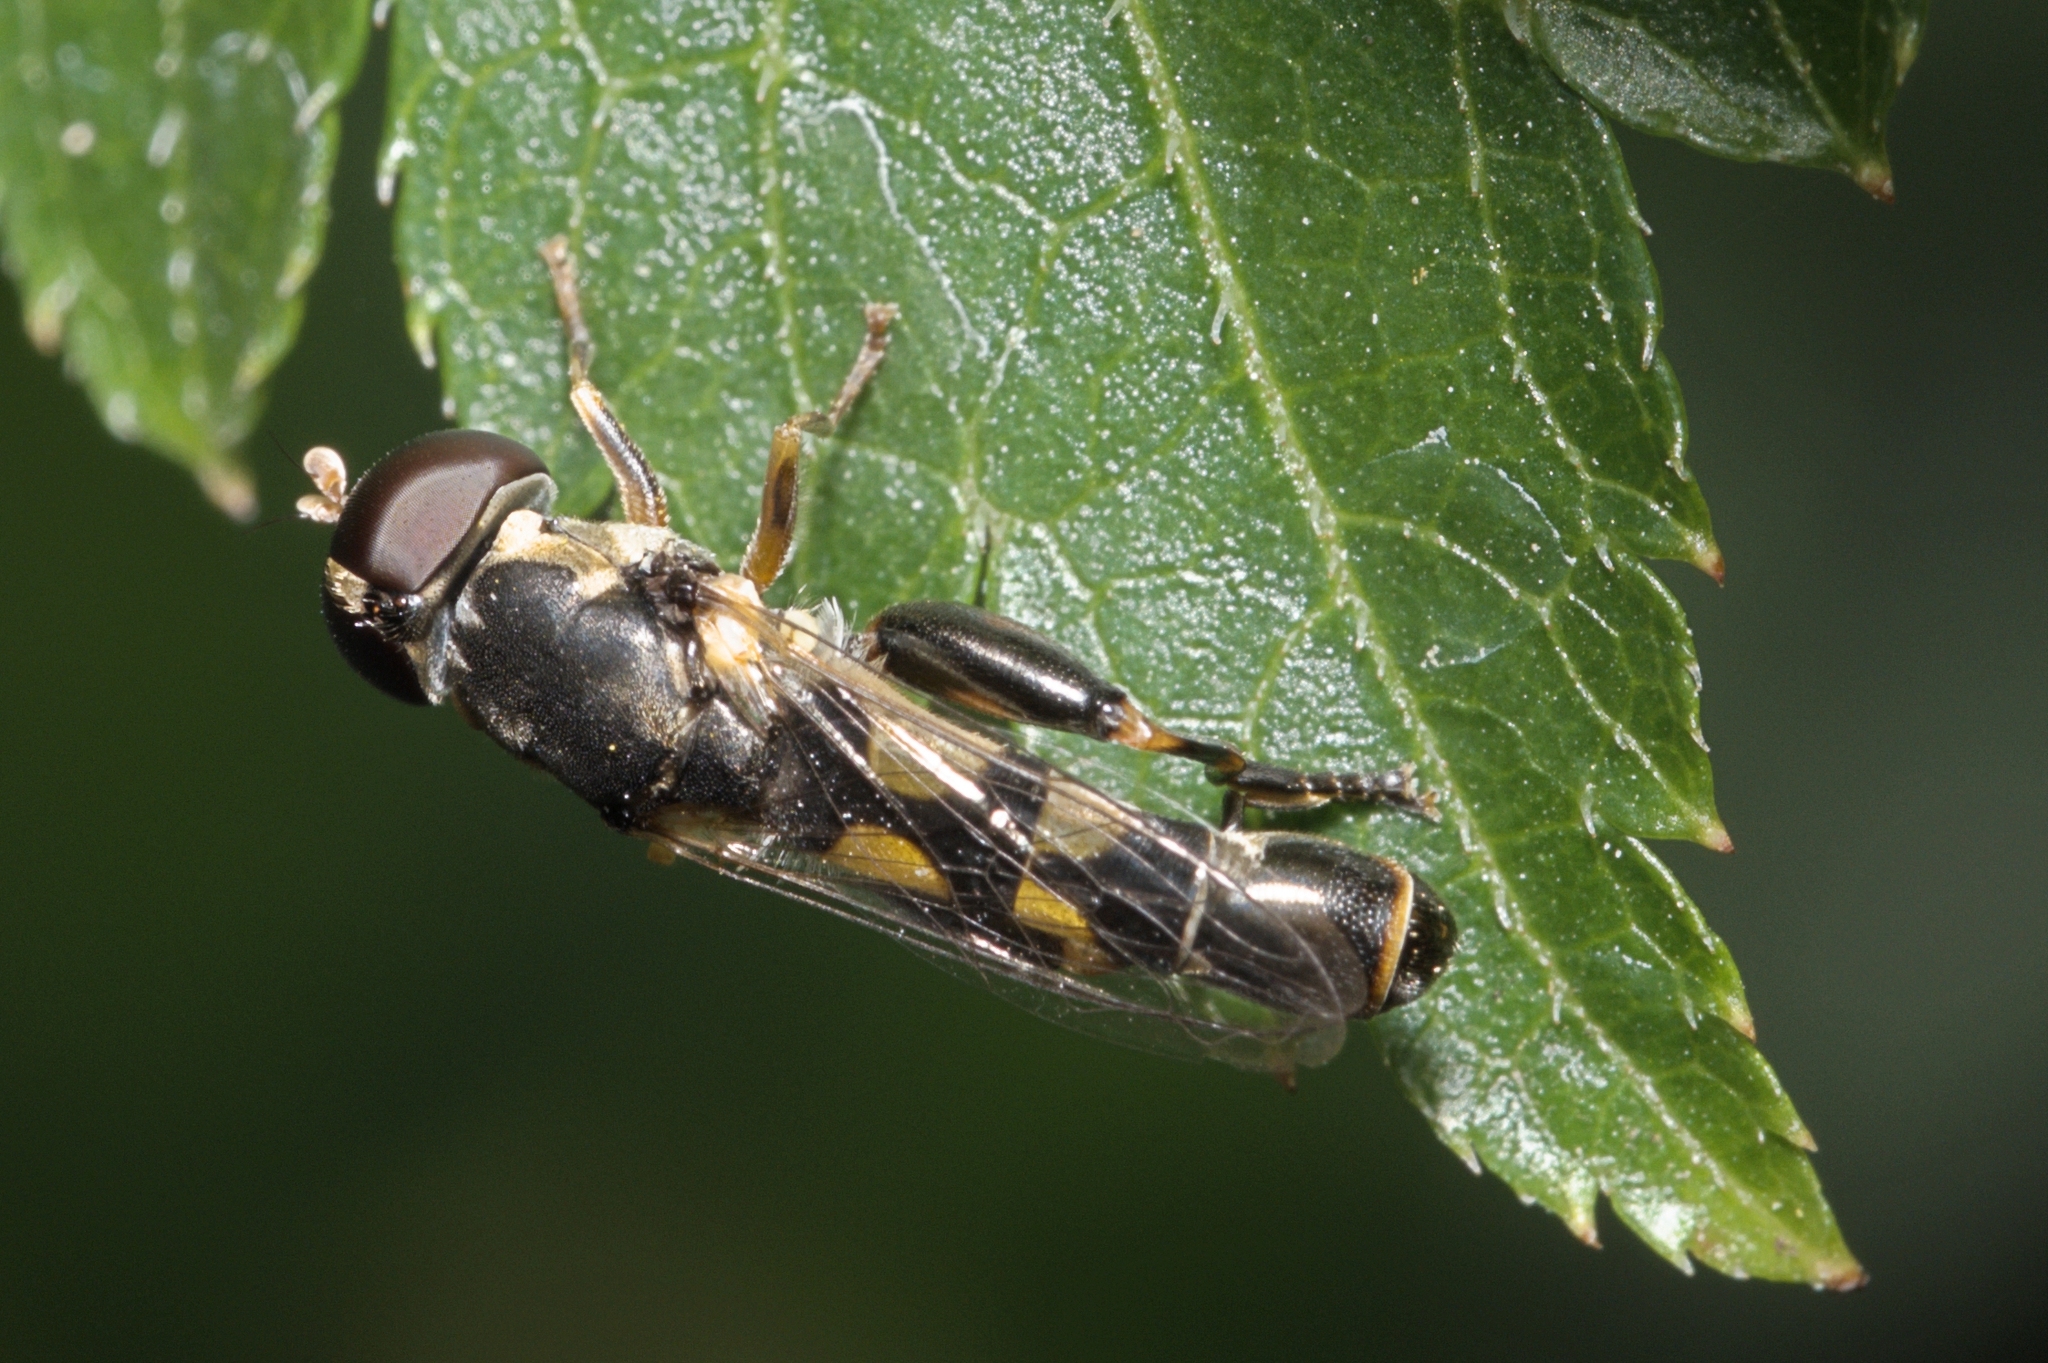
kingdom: Animalia
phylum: Arthropoda
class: Insecta
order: Diptera
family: Syrphidae
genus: Syritta
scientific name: Syritta pipiens
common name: Hover fly
